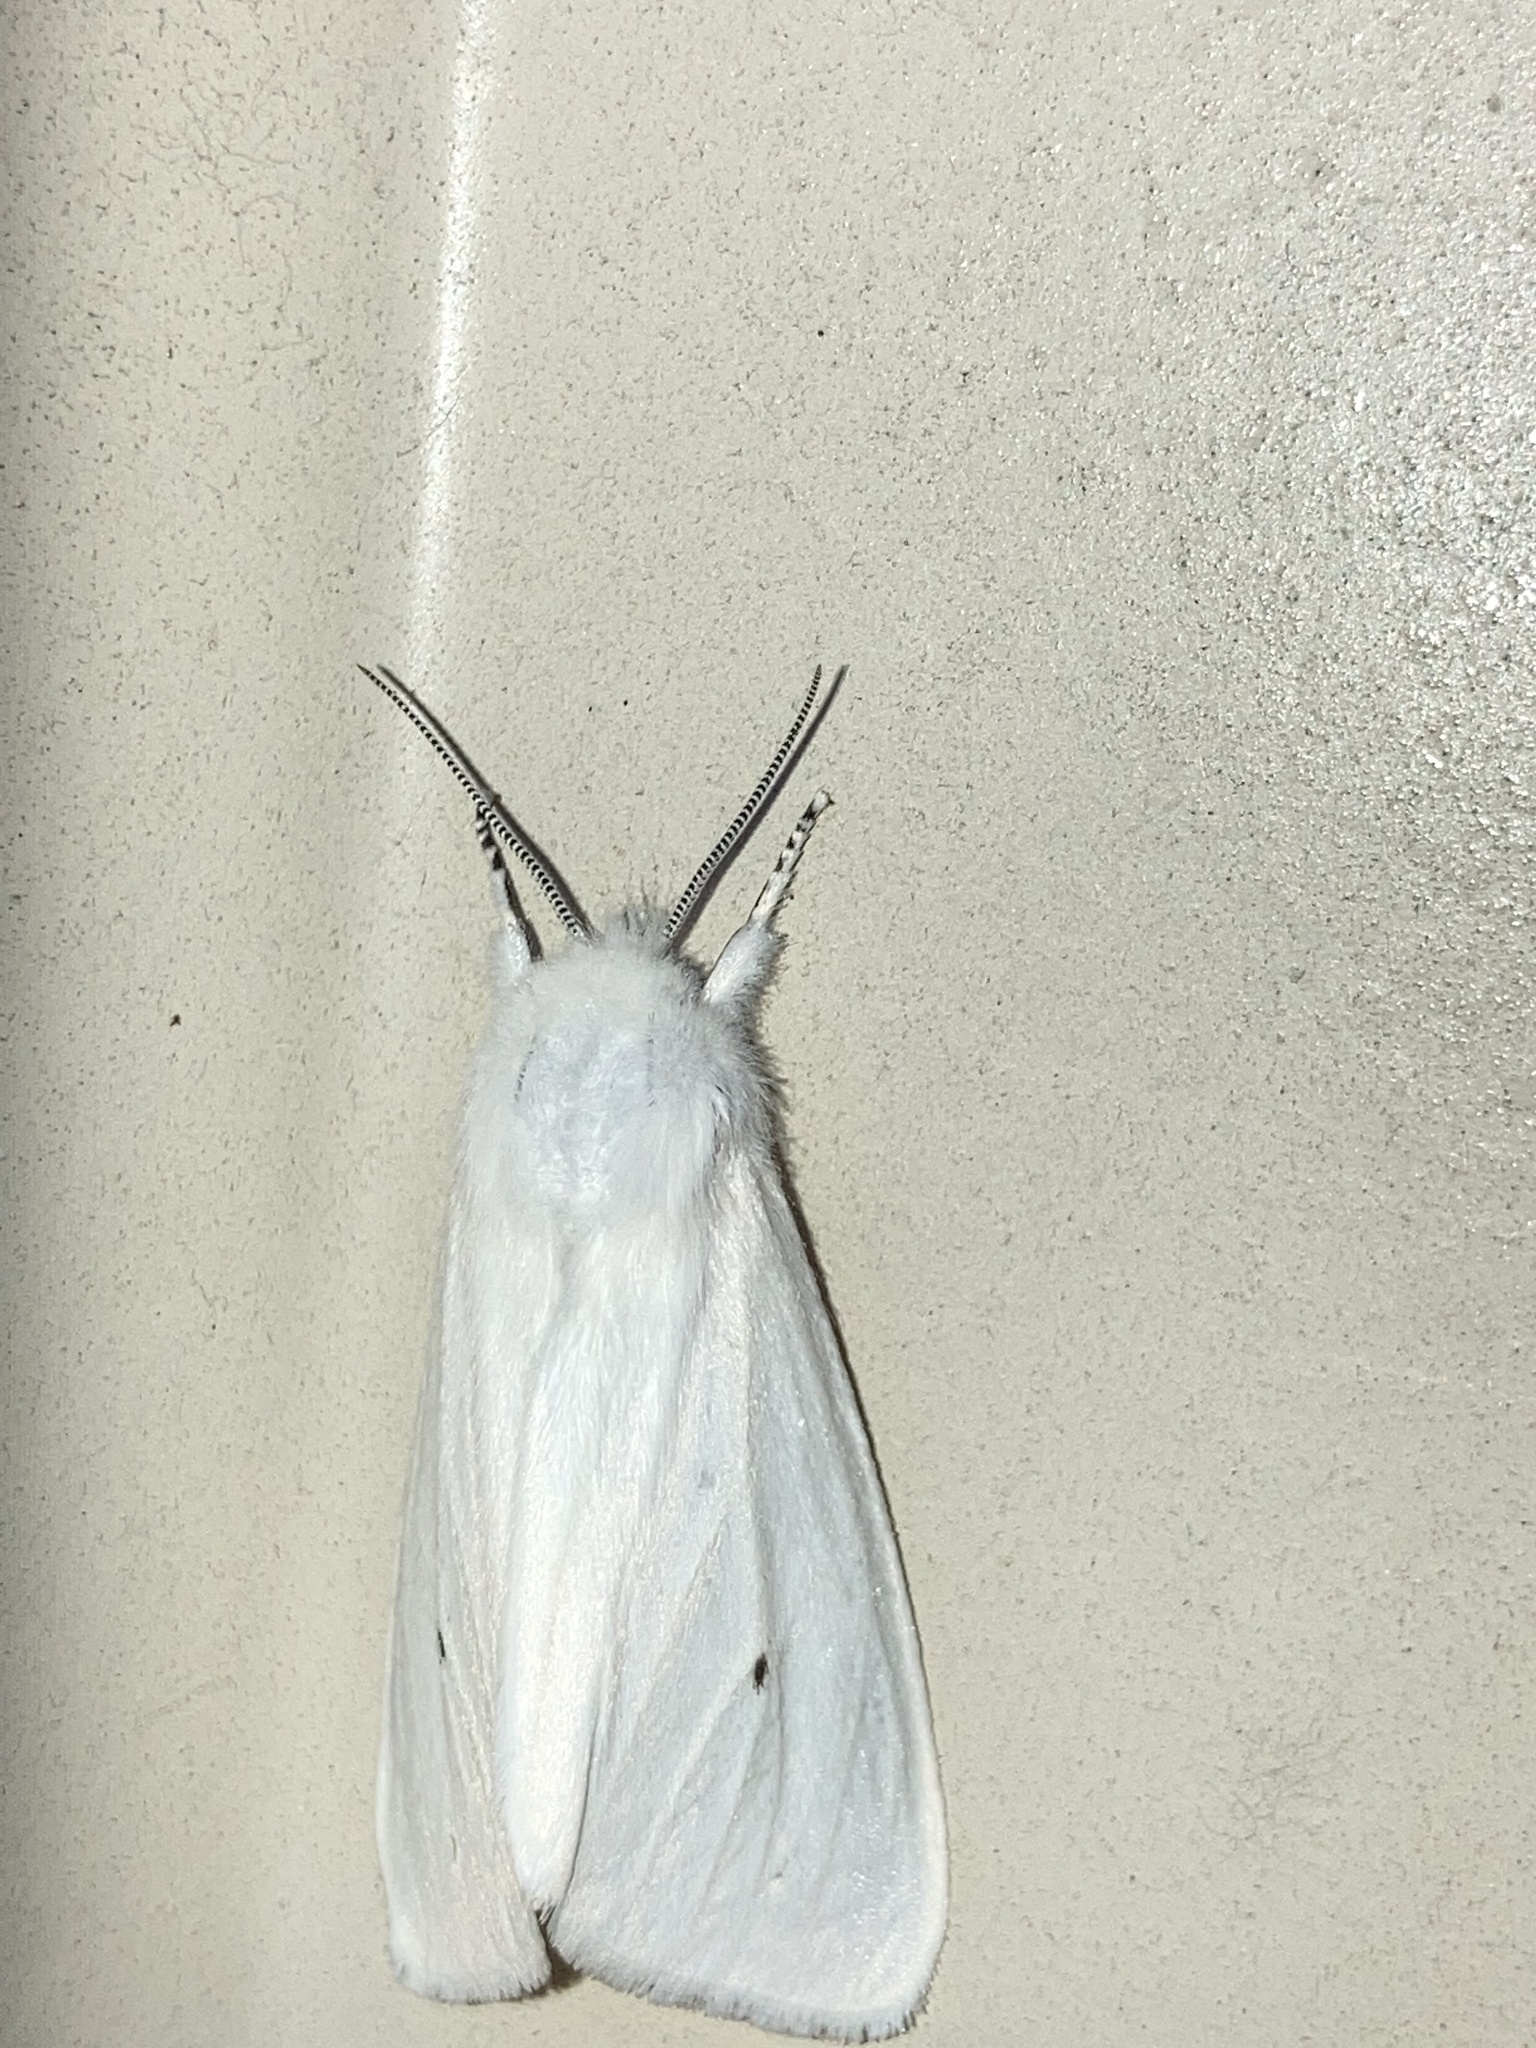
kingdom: Animalia
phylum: Arthropoda
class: Insecta
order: Lepidoptera
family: Erebidae
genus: Spilosoma
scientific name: Spilosoma virginica
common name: Virginia tiger moth
